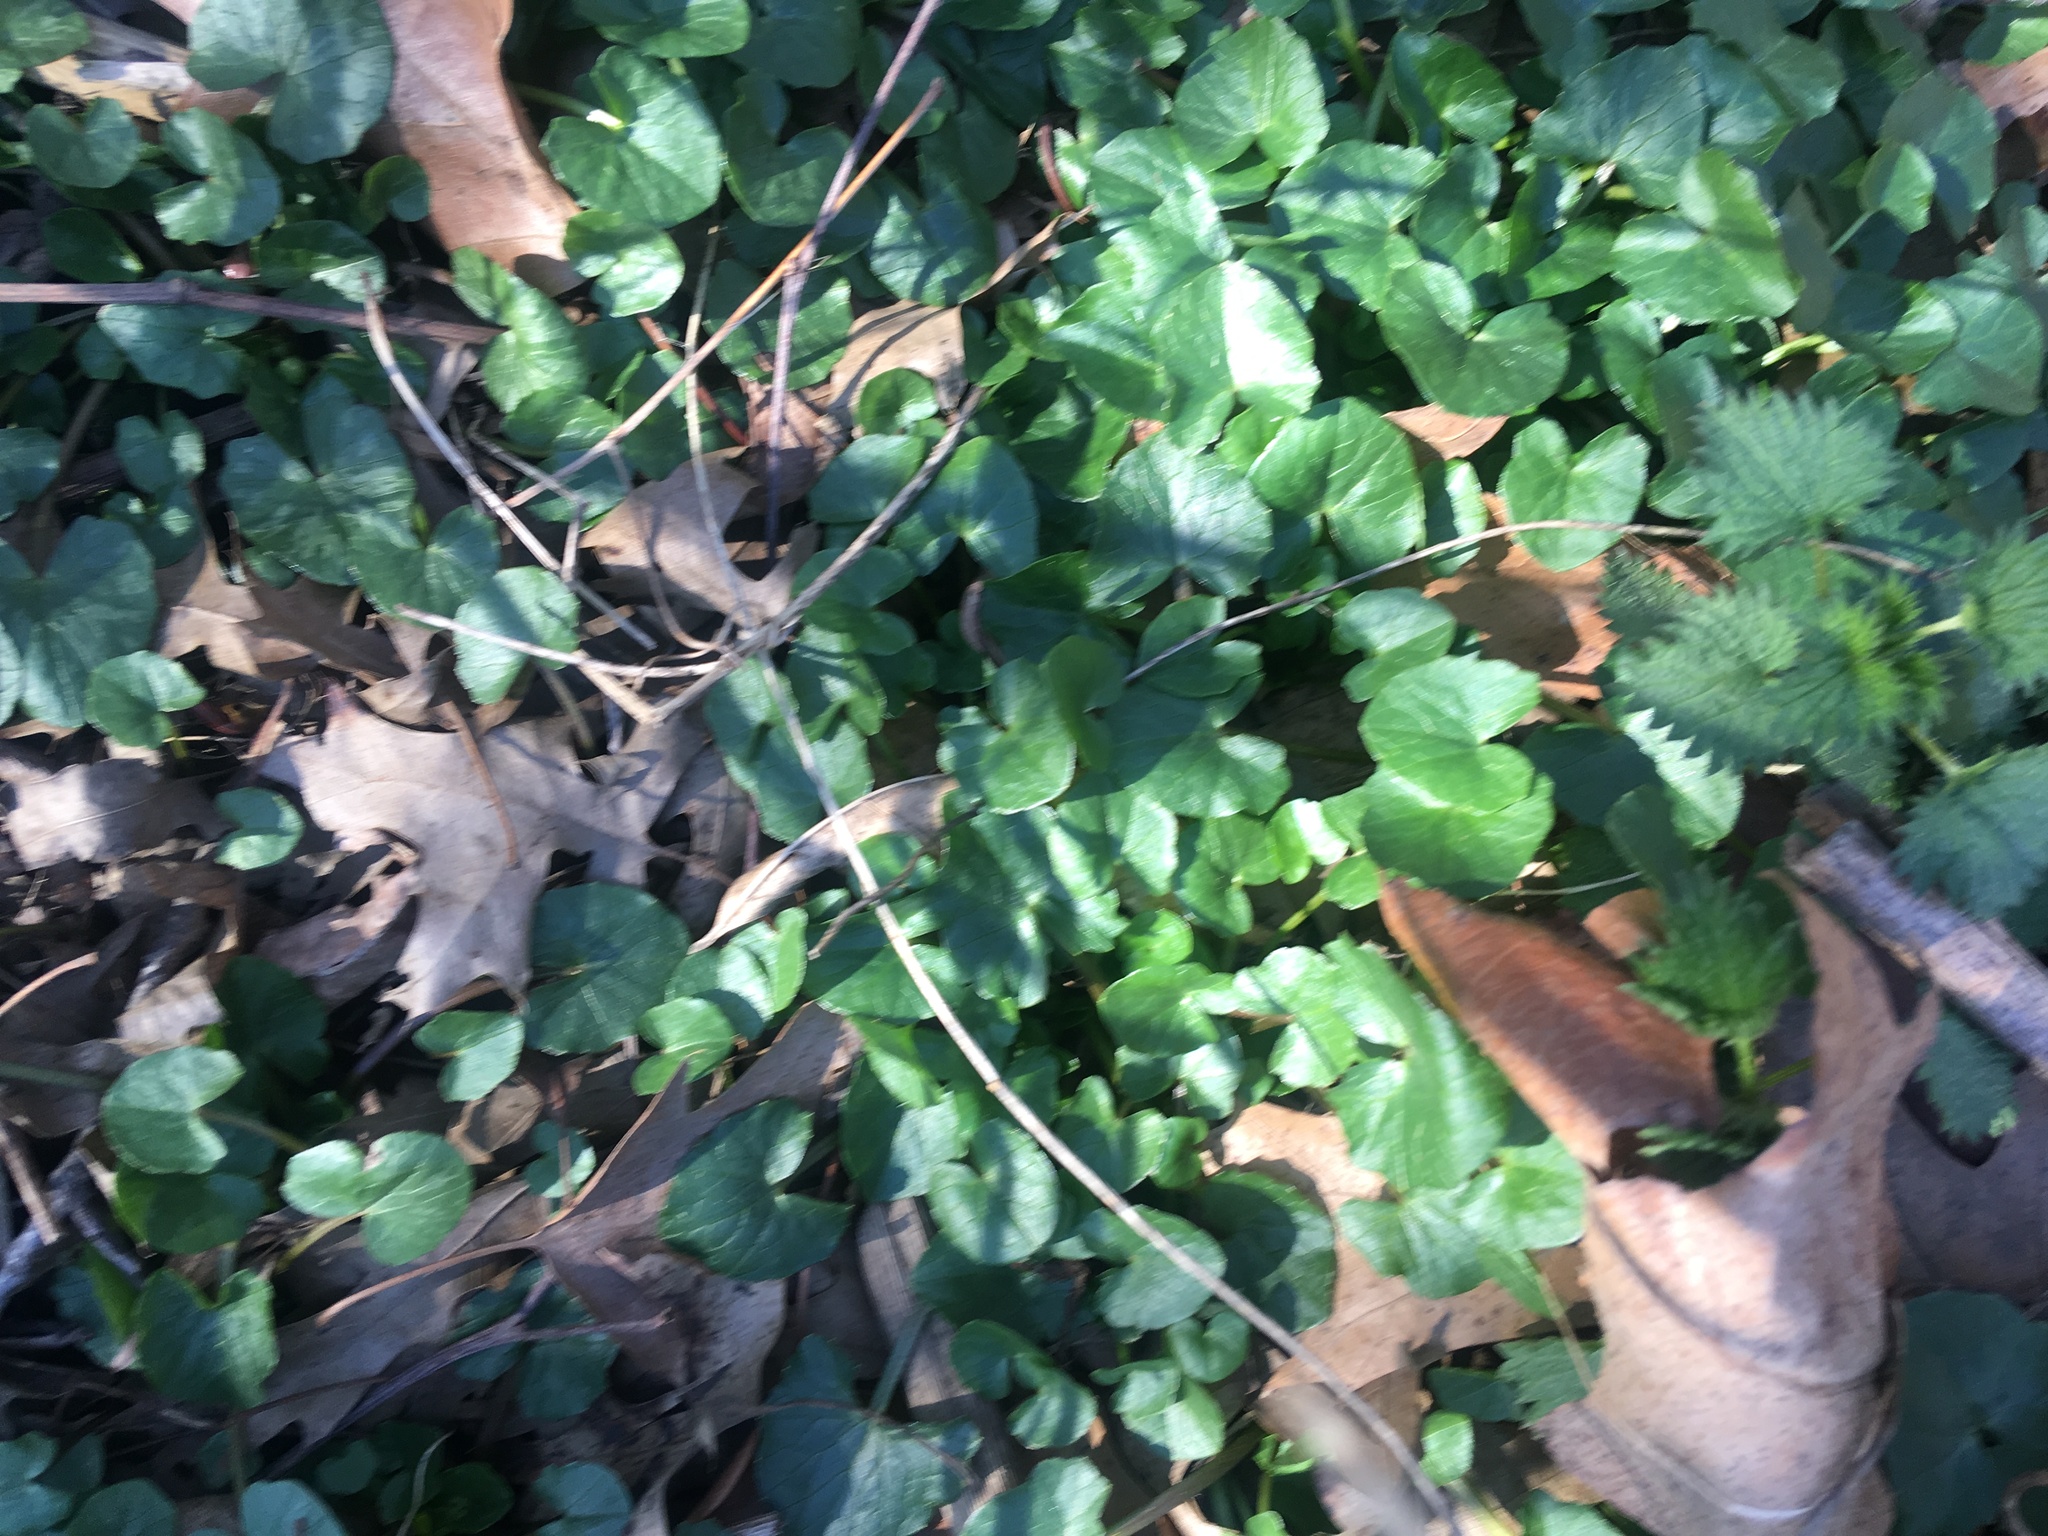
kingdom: Plantae
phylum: Tracheophyta
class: Magnoliopsida
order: Ranunculales
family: Ranunculaceae
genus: Ficaria
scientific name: Ficaria verna
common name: Lesser celandine
